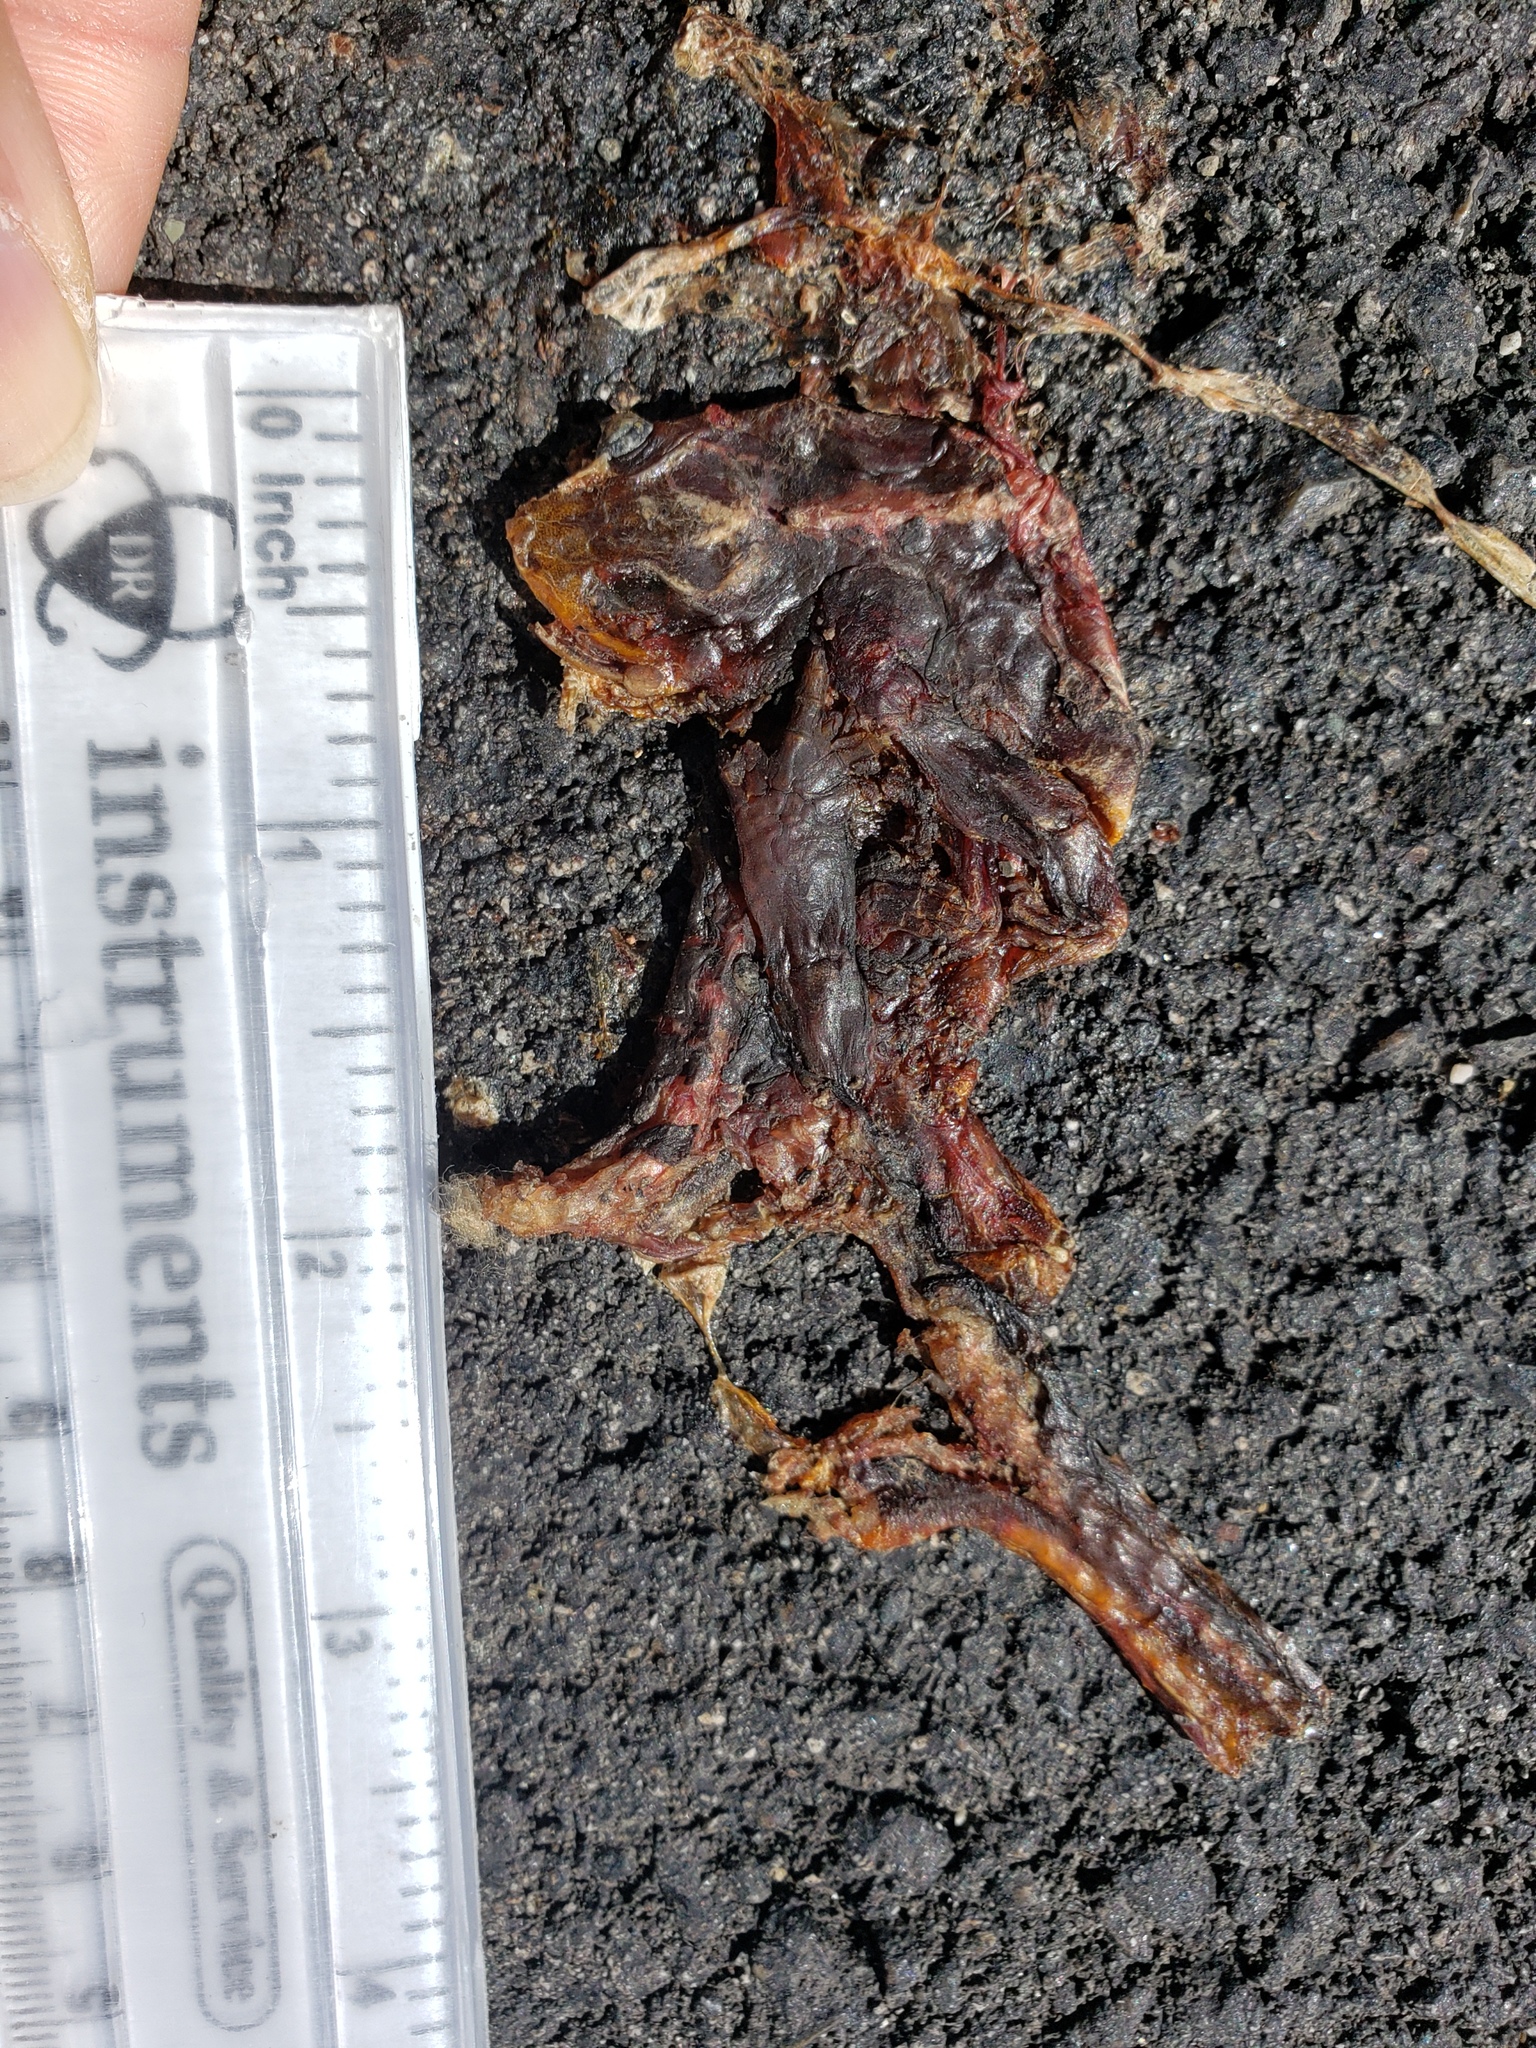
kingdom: Animalia
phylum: Chordata
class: Amphibia
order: Caudata
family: Salamandridae
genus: Taricha
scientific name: Taricha
